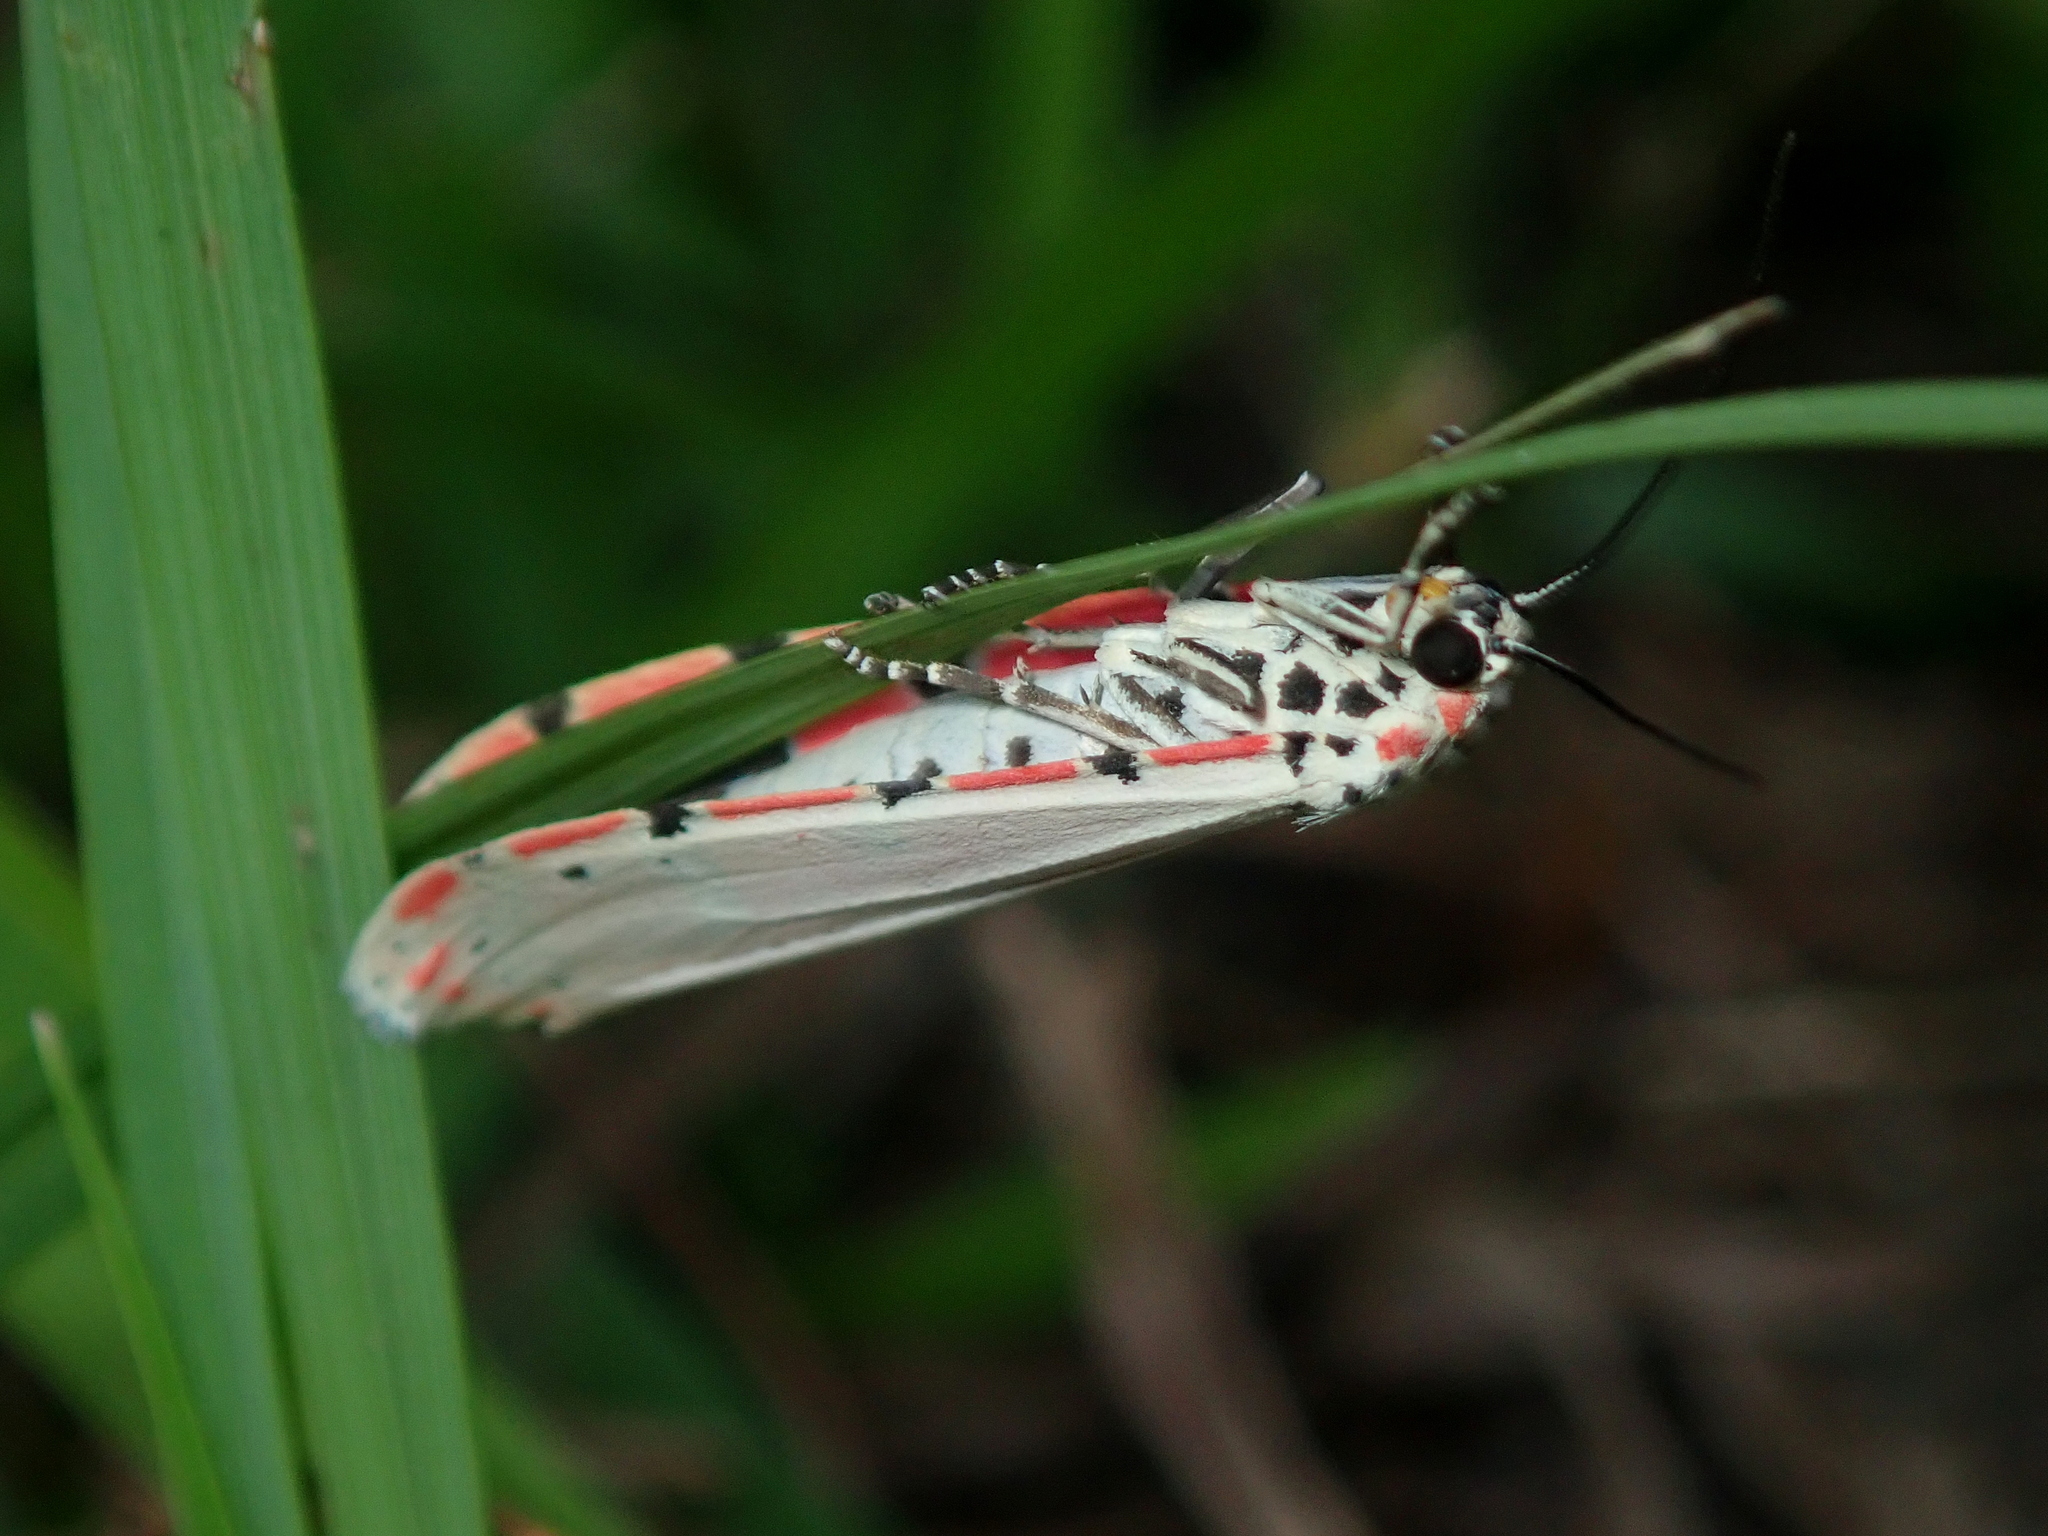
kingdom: Animalia
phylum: Arthropoda
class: Insecta
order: Lepidoptera
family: Erebidae
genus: Utetheisa
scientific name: Utetheisa ornatrix
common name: Beautiful utetheisa
